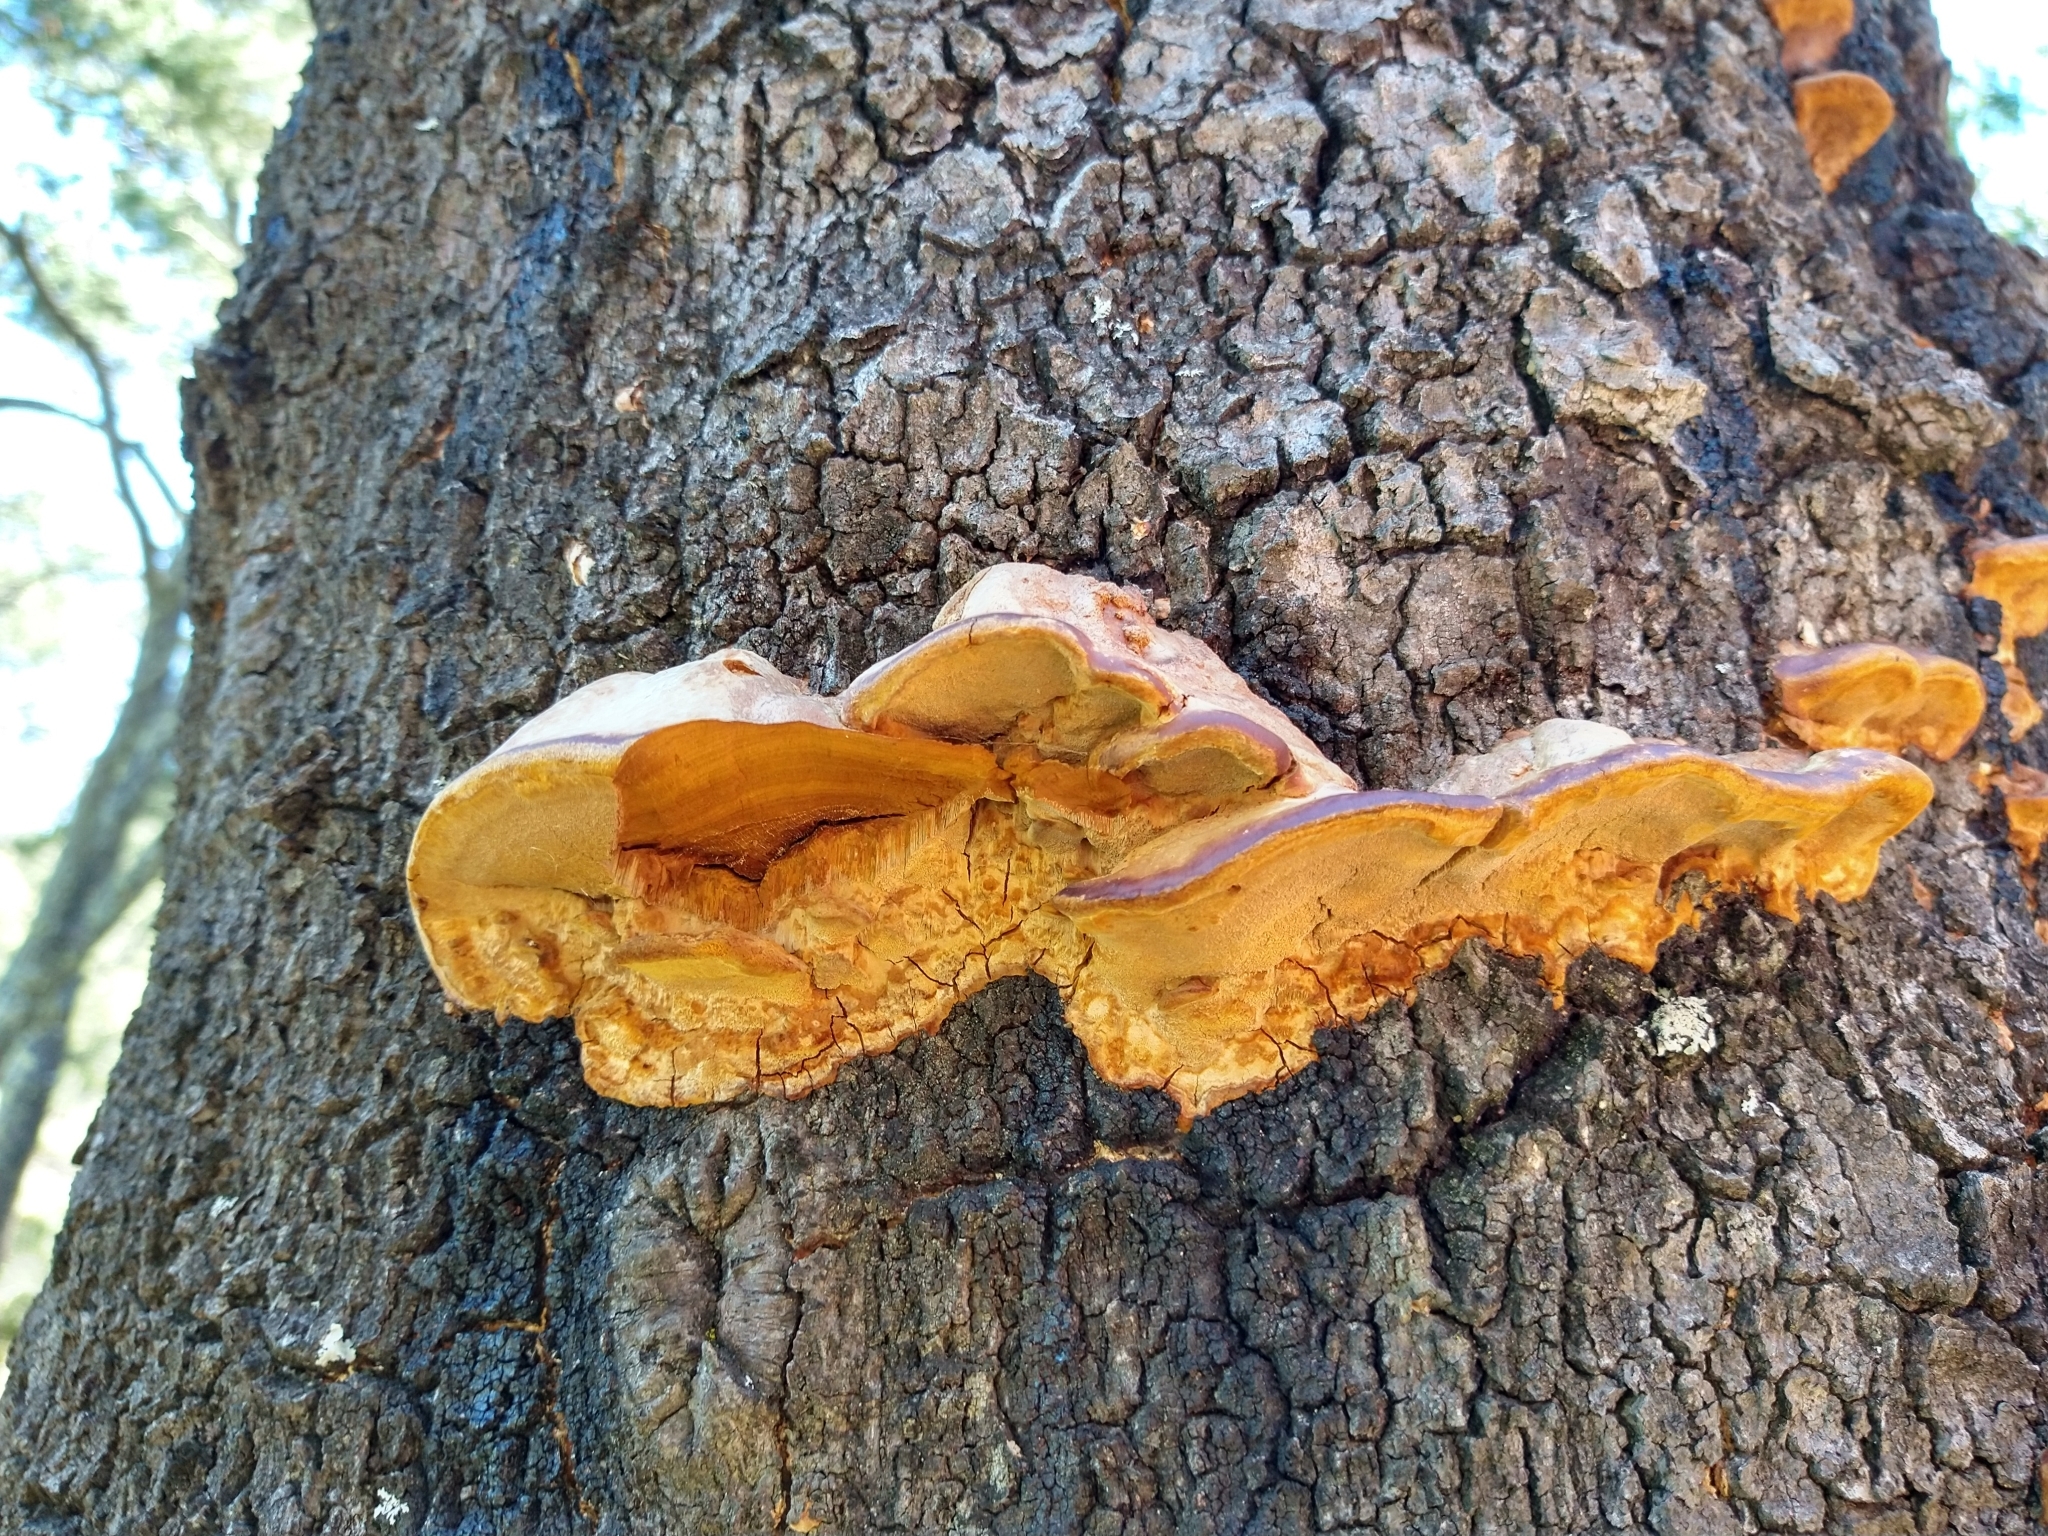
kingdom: Fungi
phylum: Basidiomycota
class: Agaricomycetes
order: Hymenochaetales
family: Hymenochaetaceae
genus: Phellinus
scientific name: Phellinus gilvus
